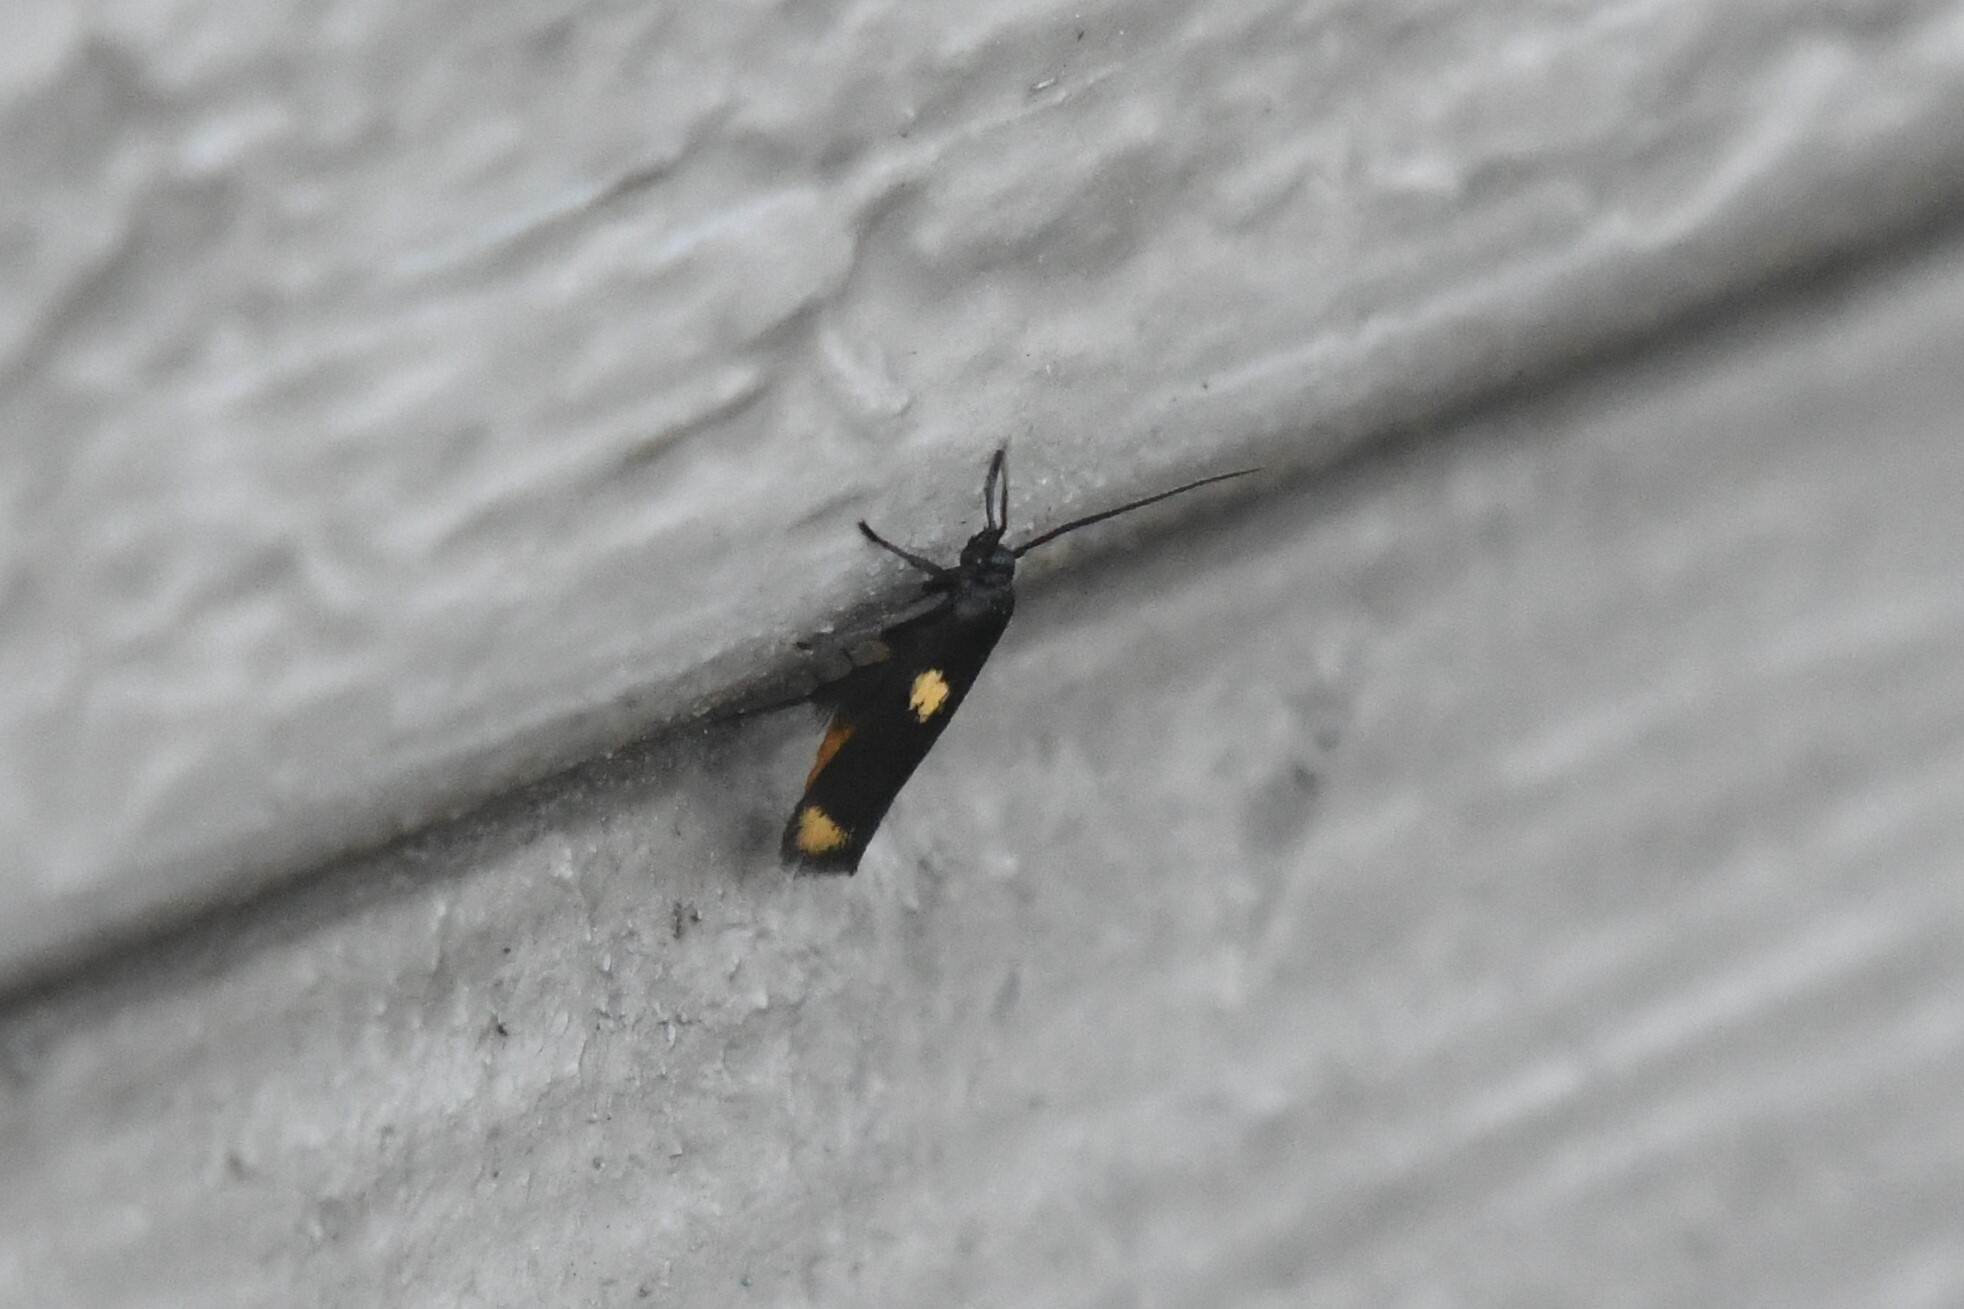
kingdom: Animalia
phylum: Arthropoda
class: Insecta
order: Lepidoptera
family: Scythrididae
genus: Scythris
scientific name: Scythris sinensis
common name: Kentish owlet
